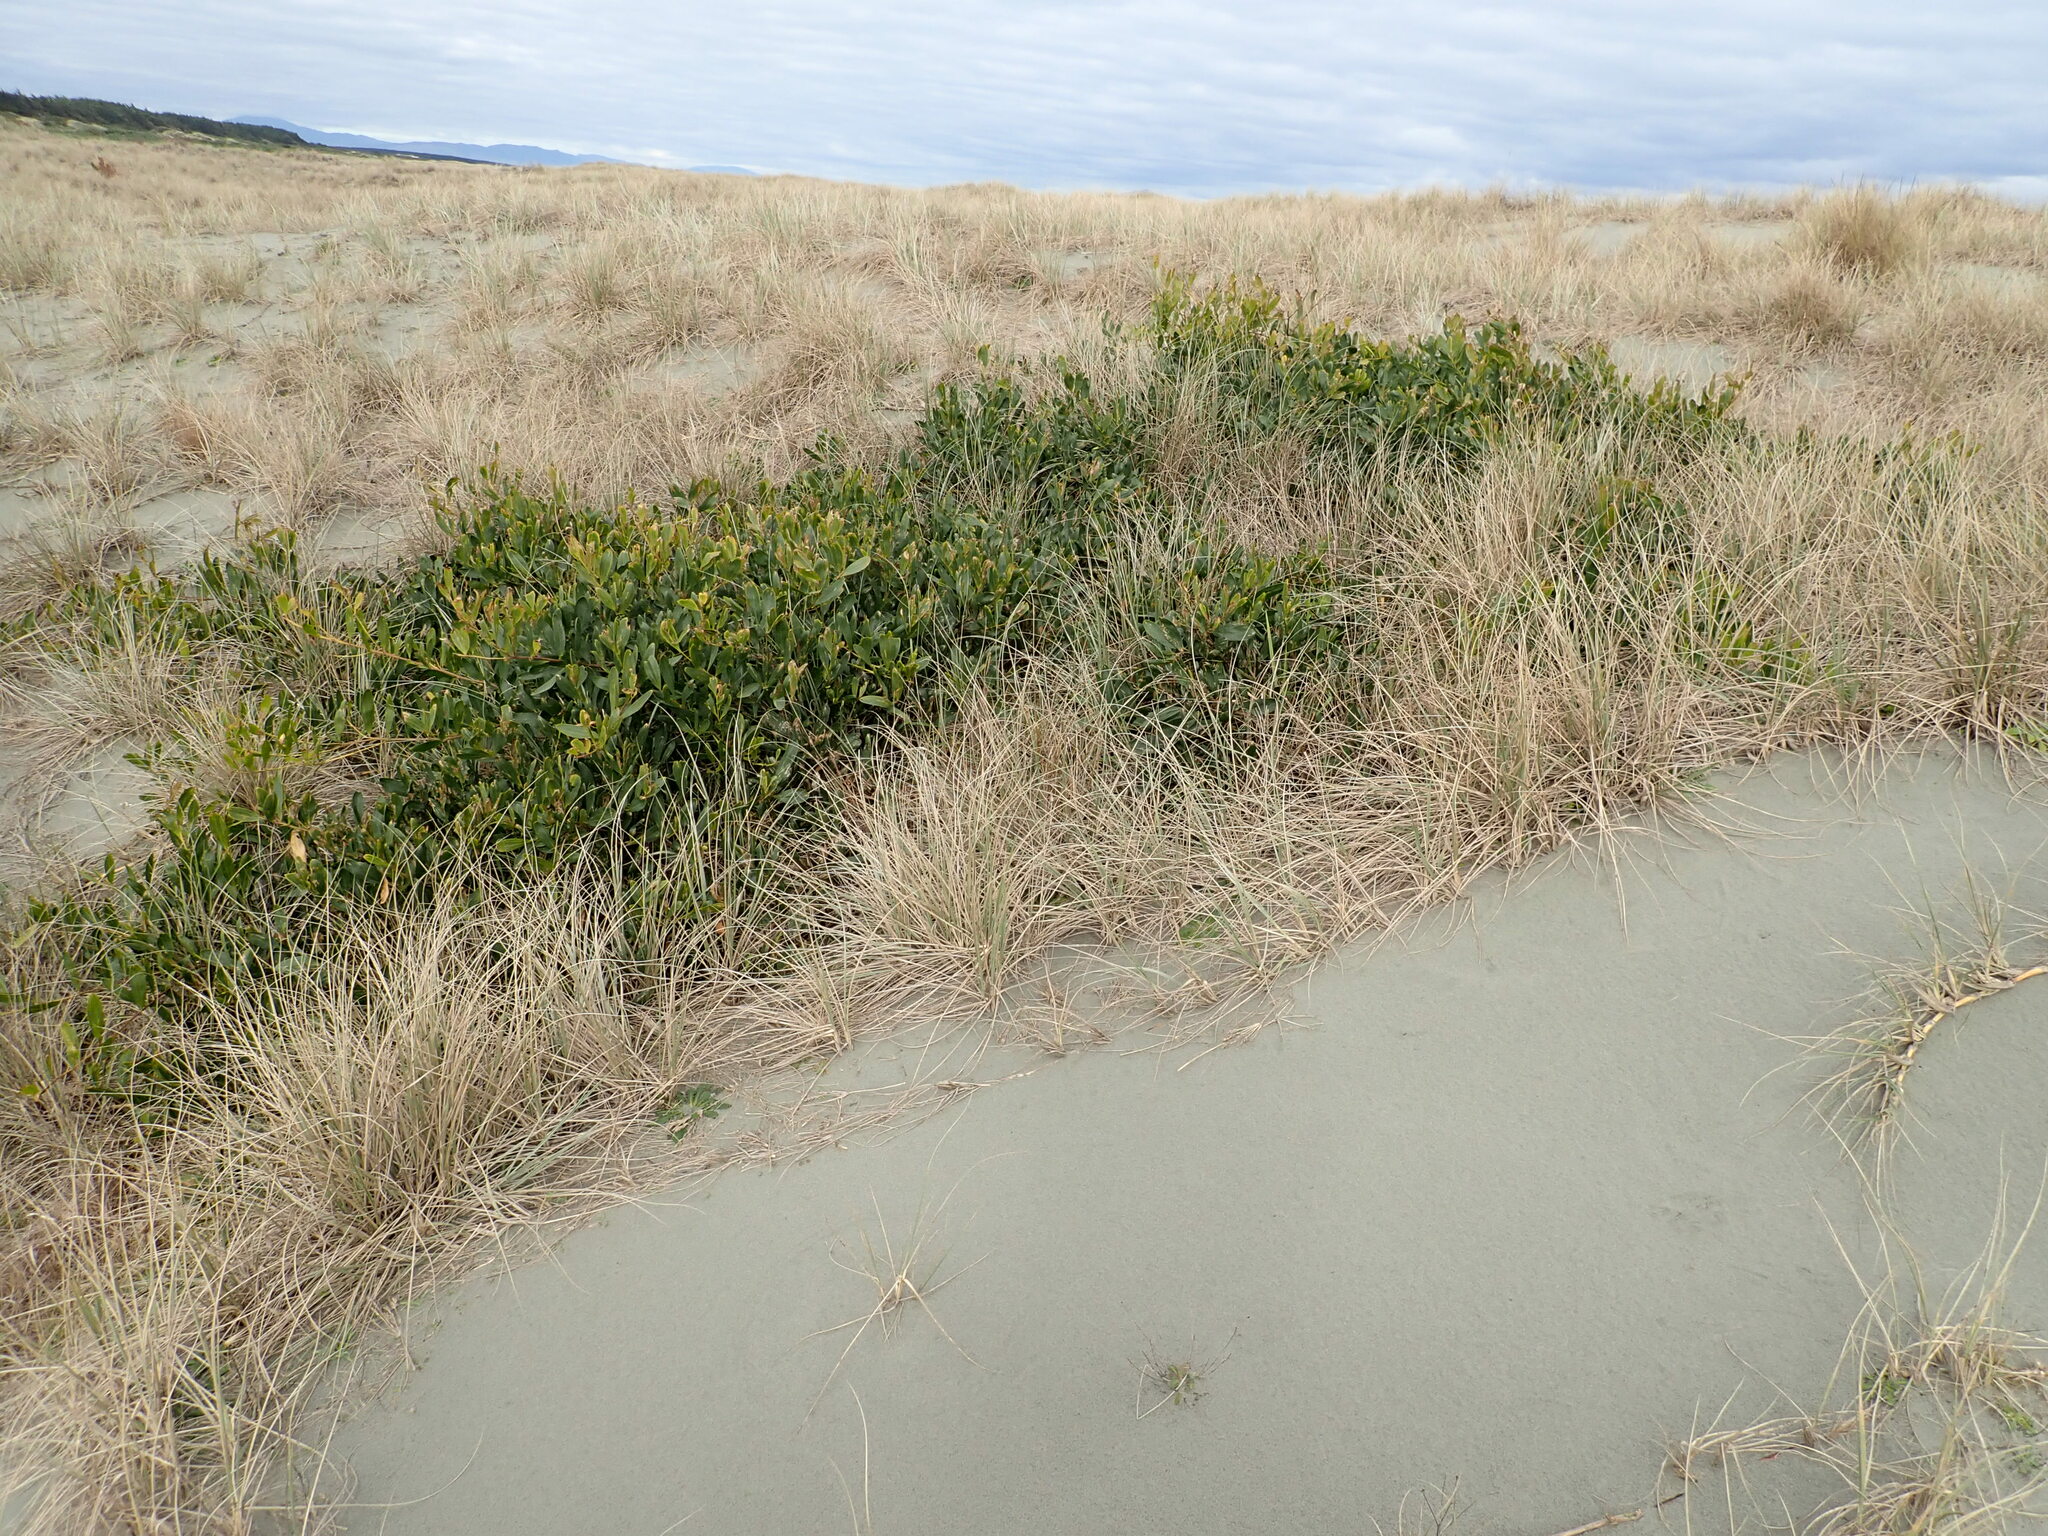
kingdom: Plantae
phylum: Tracheophyta
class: Magnoliopsida
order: Fabales
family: Fabaceae
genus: Acacia
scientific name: Acacia longifolia
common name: Sydney golden wattle
